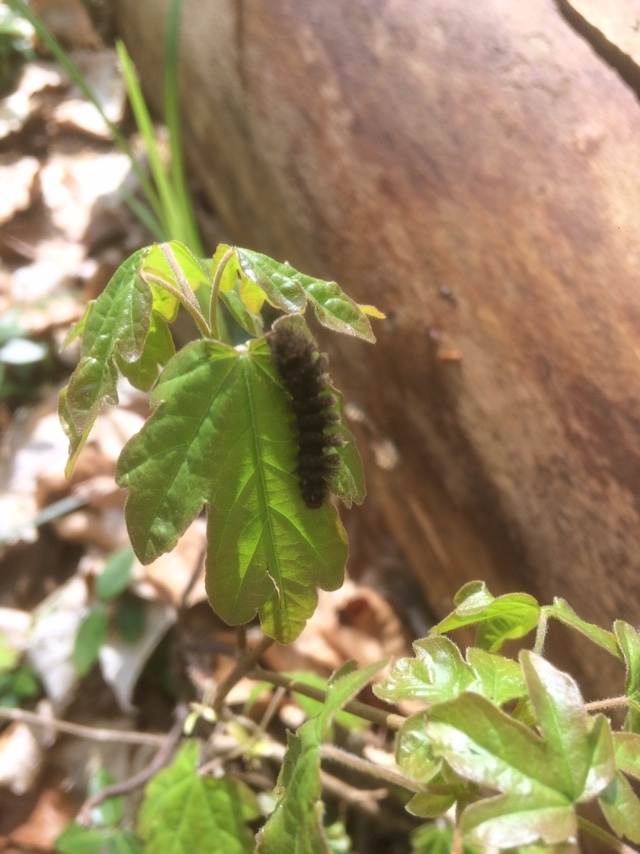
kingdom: Animalia
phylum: Arthropoda
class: Insecta
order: Lepidoptera
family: Erebidae
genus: Amata
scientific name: Amata phegea
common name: Nine-spotted
